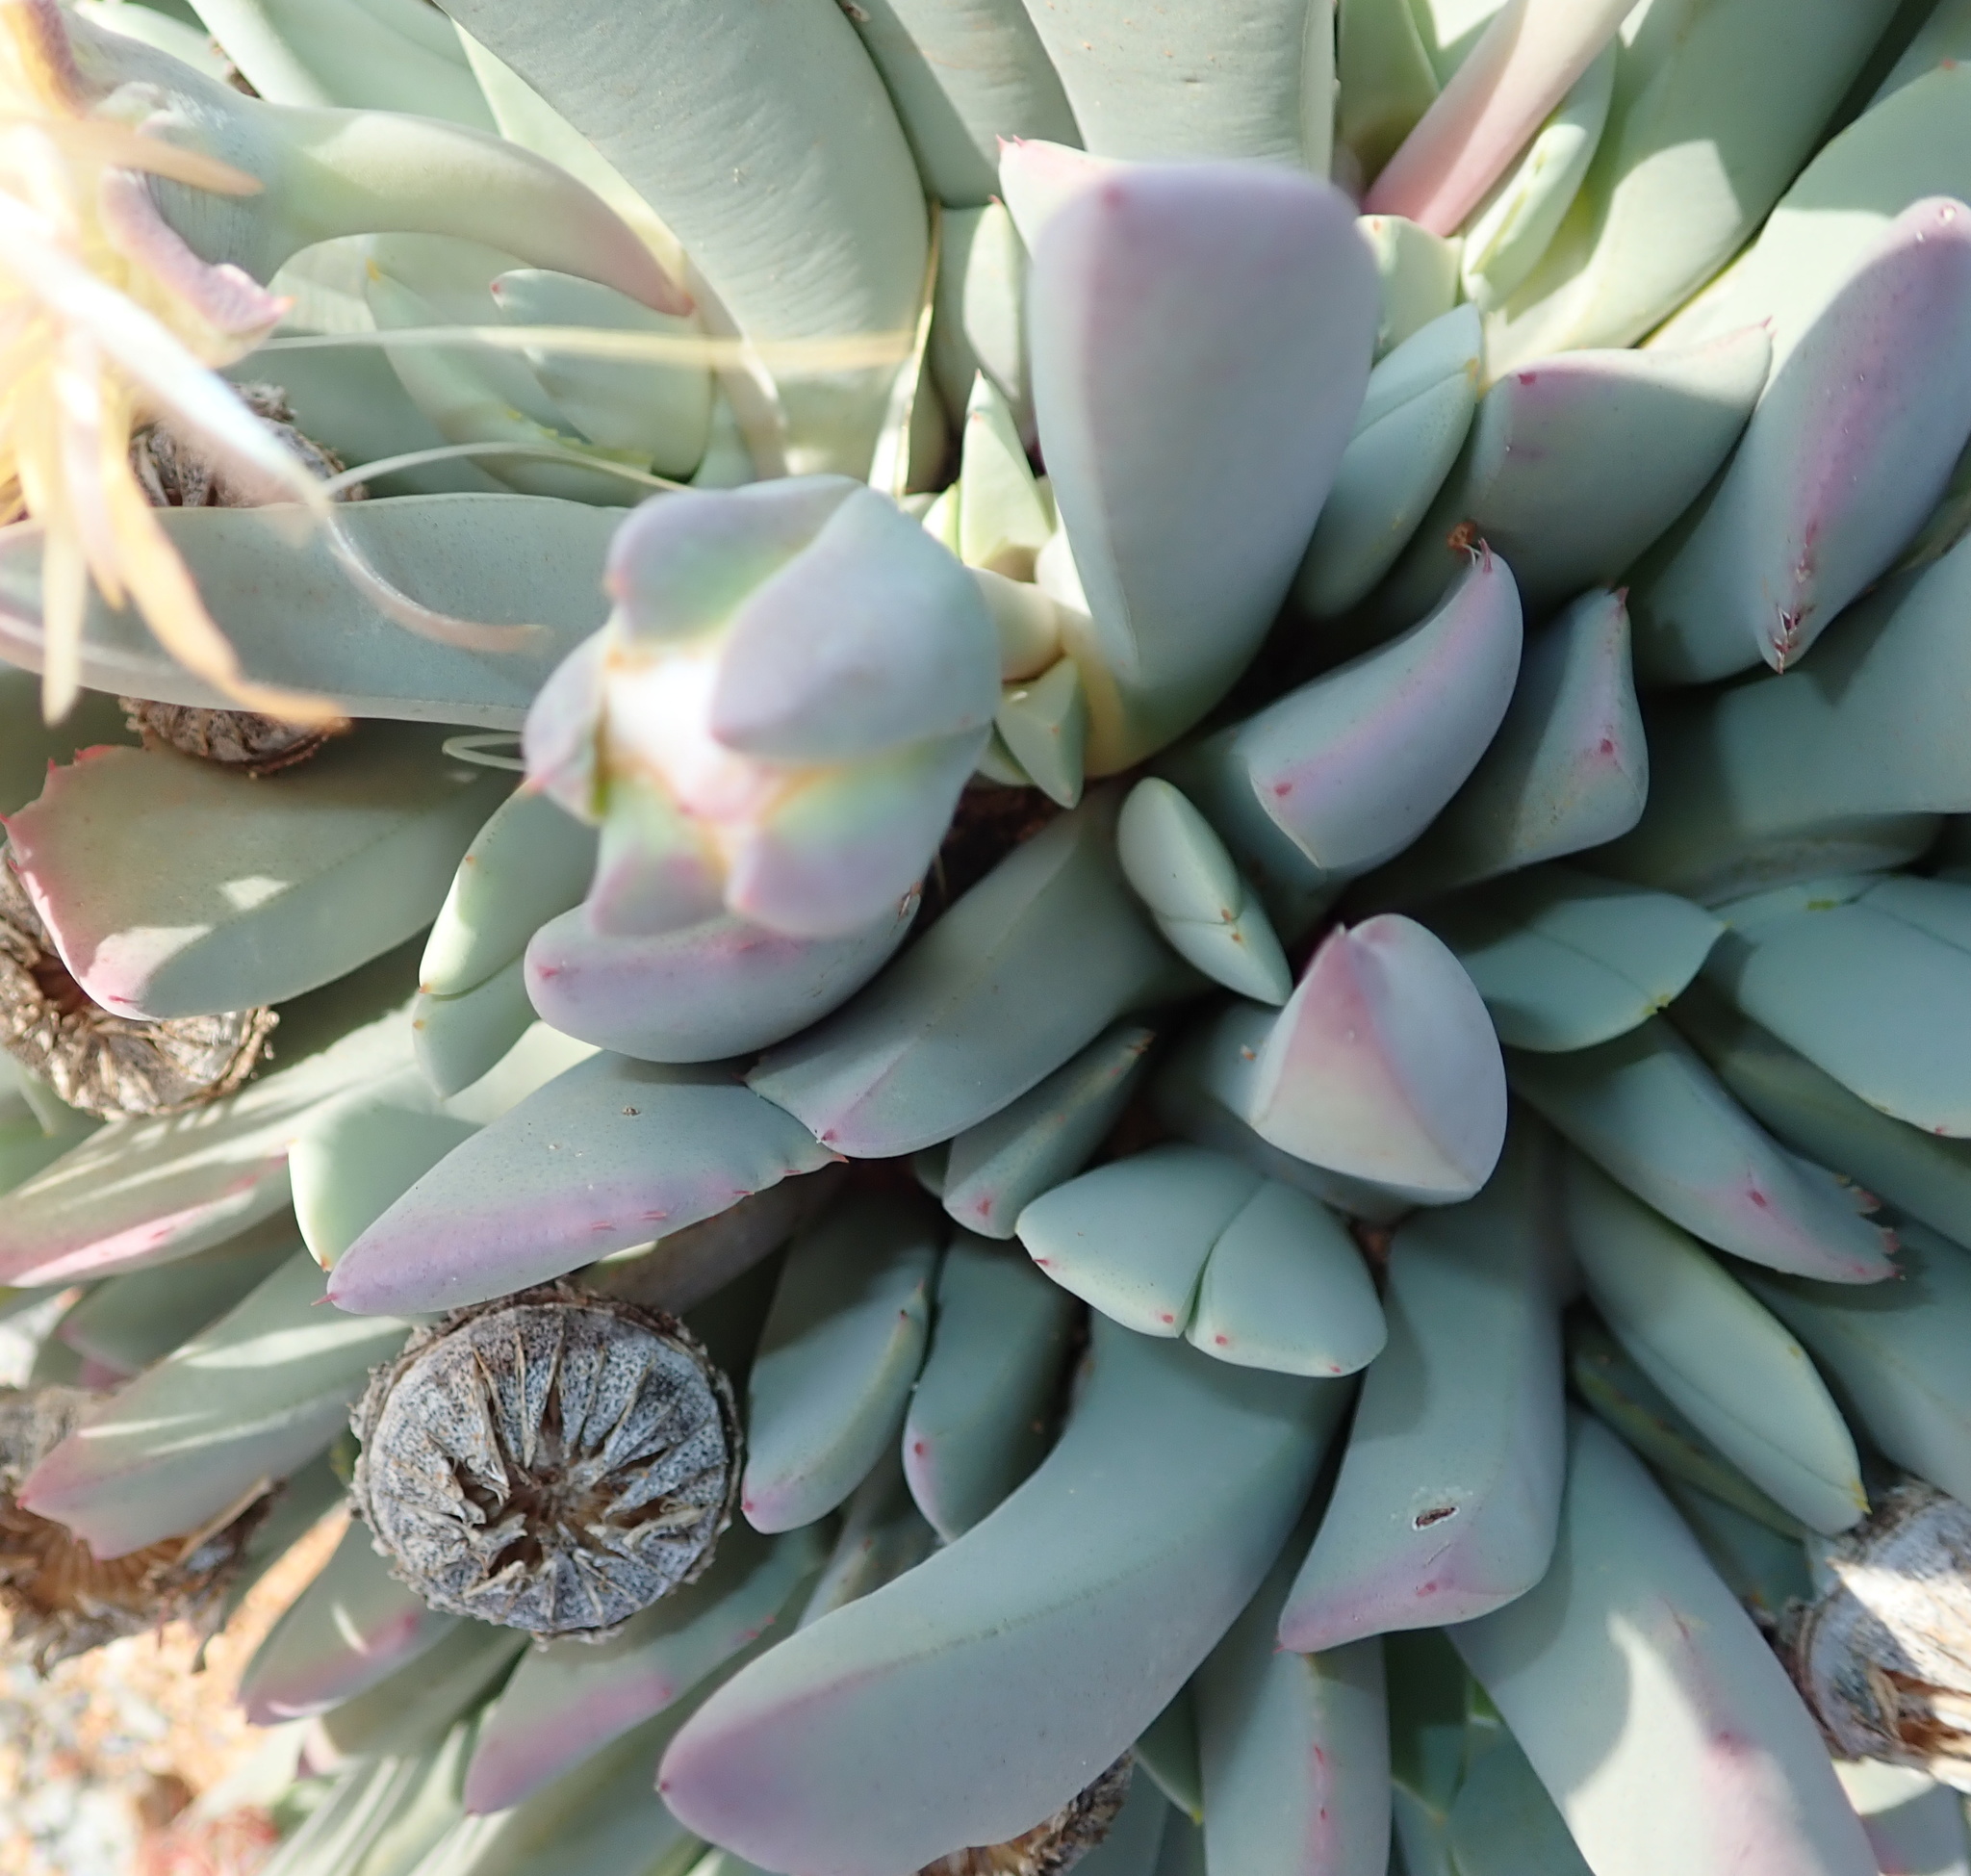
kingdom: Plantae
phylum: Tracheophyta
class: Magnoliopsida
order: Caryophyllales
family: Aizoaceae
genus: Cheiridopsis
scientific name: Cheiridopsis denticulata
